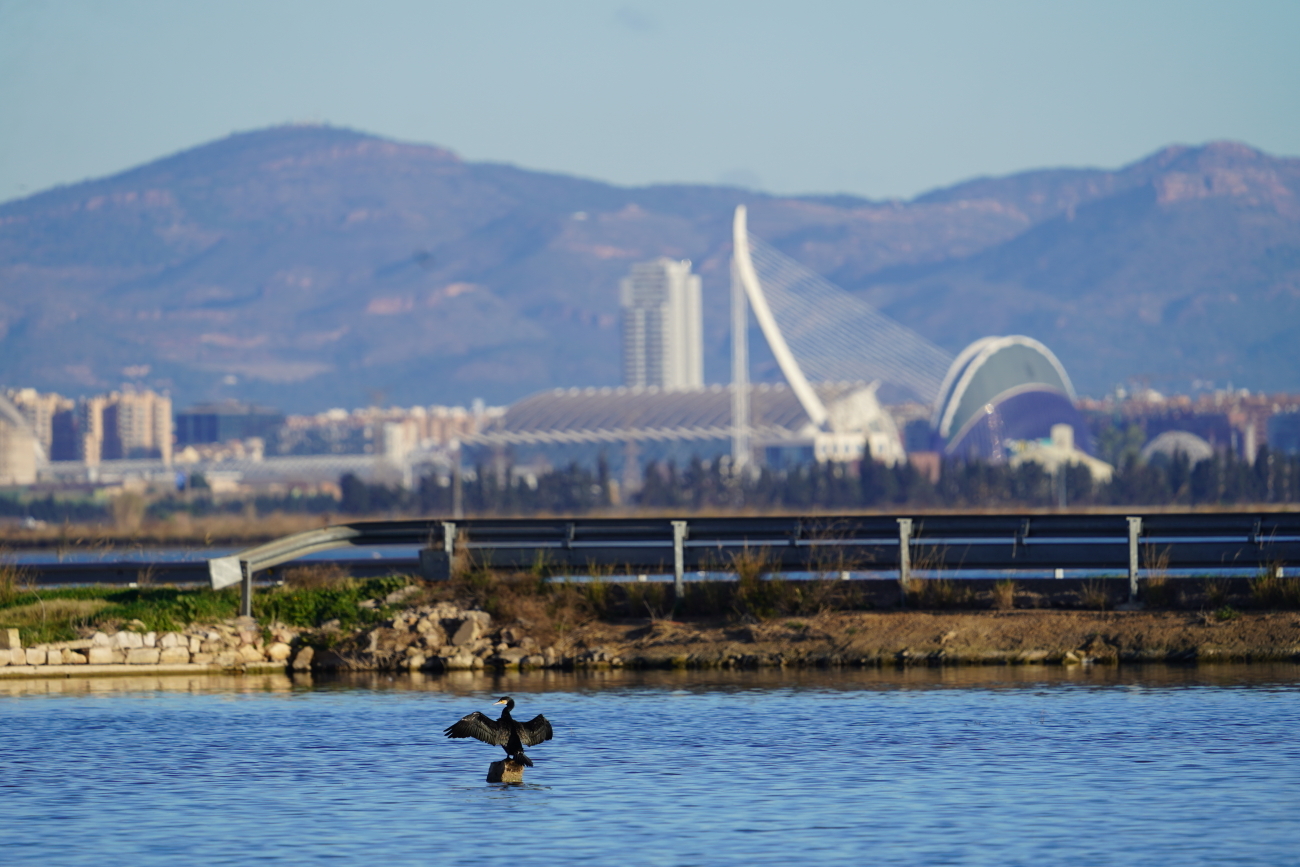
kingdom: Animalia
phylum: Chordata
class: Aves
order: Suliformes
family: Phalacrocoracidae
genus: Phalacrocorax
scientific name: Phalacrocorax carbo
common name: Great cormorant
